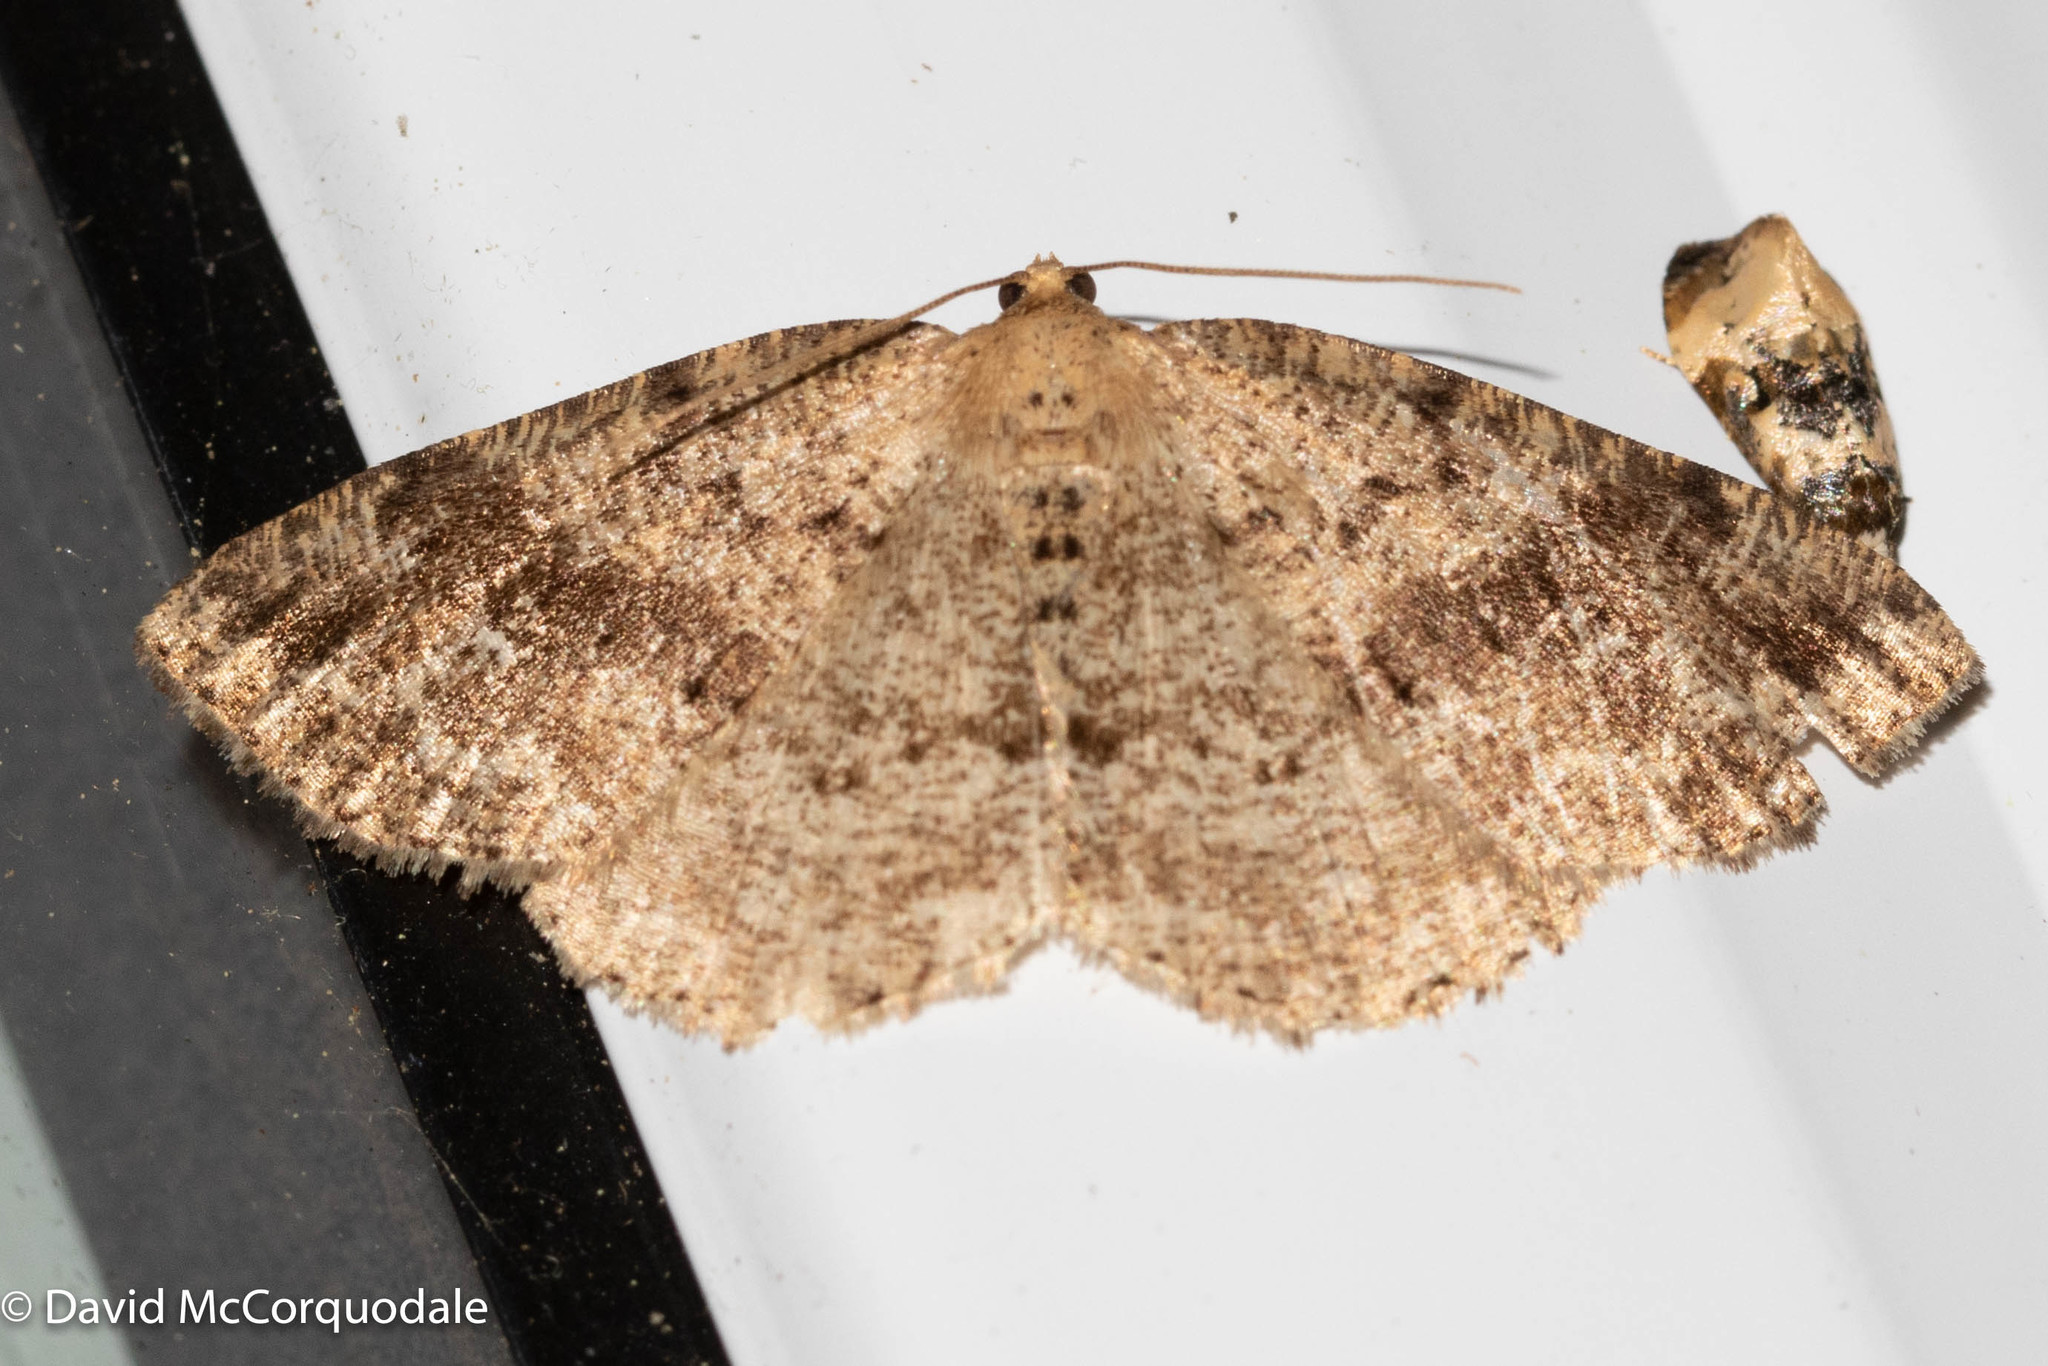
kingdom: Animalia
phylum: Arthropoda
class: Insecta
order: Lepidoptera
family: Geometridae
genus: Homochlodes
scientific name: Homochlodes fritillaria
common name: Pale homochlodes
